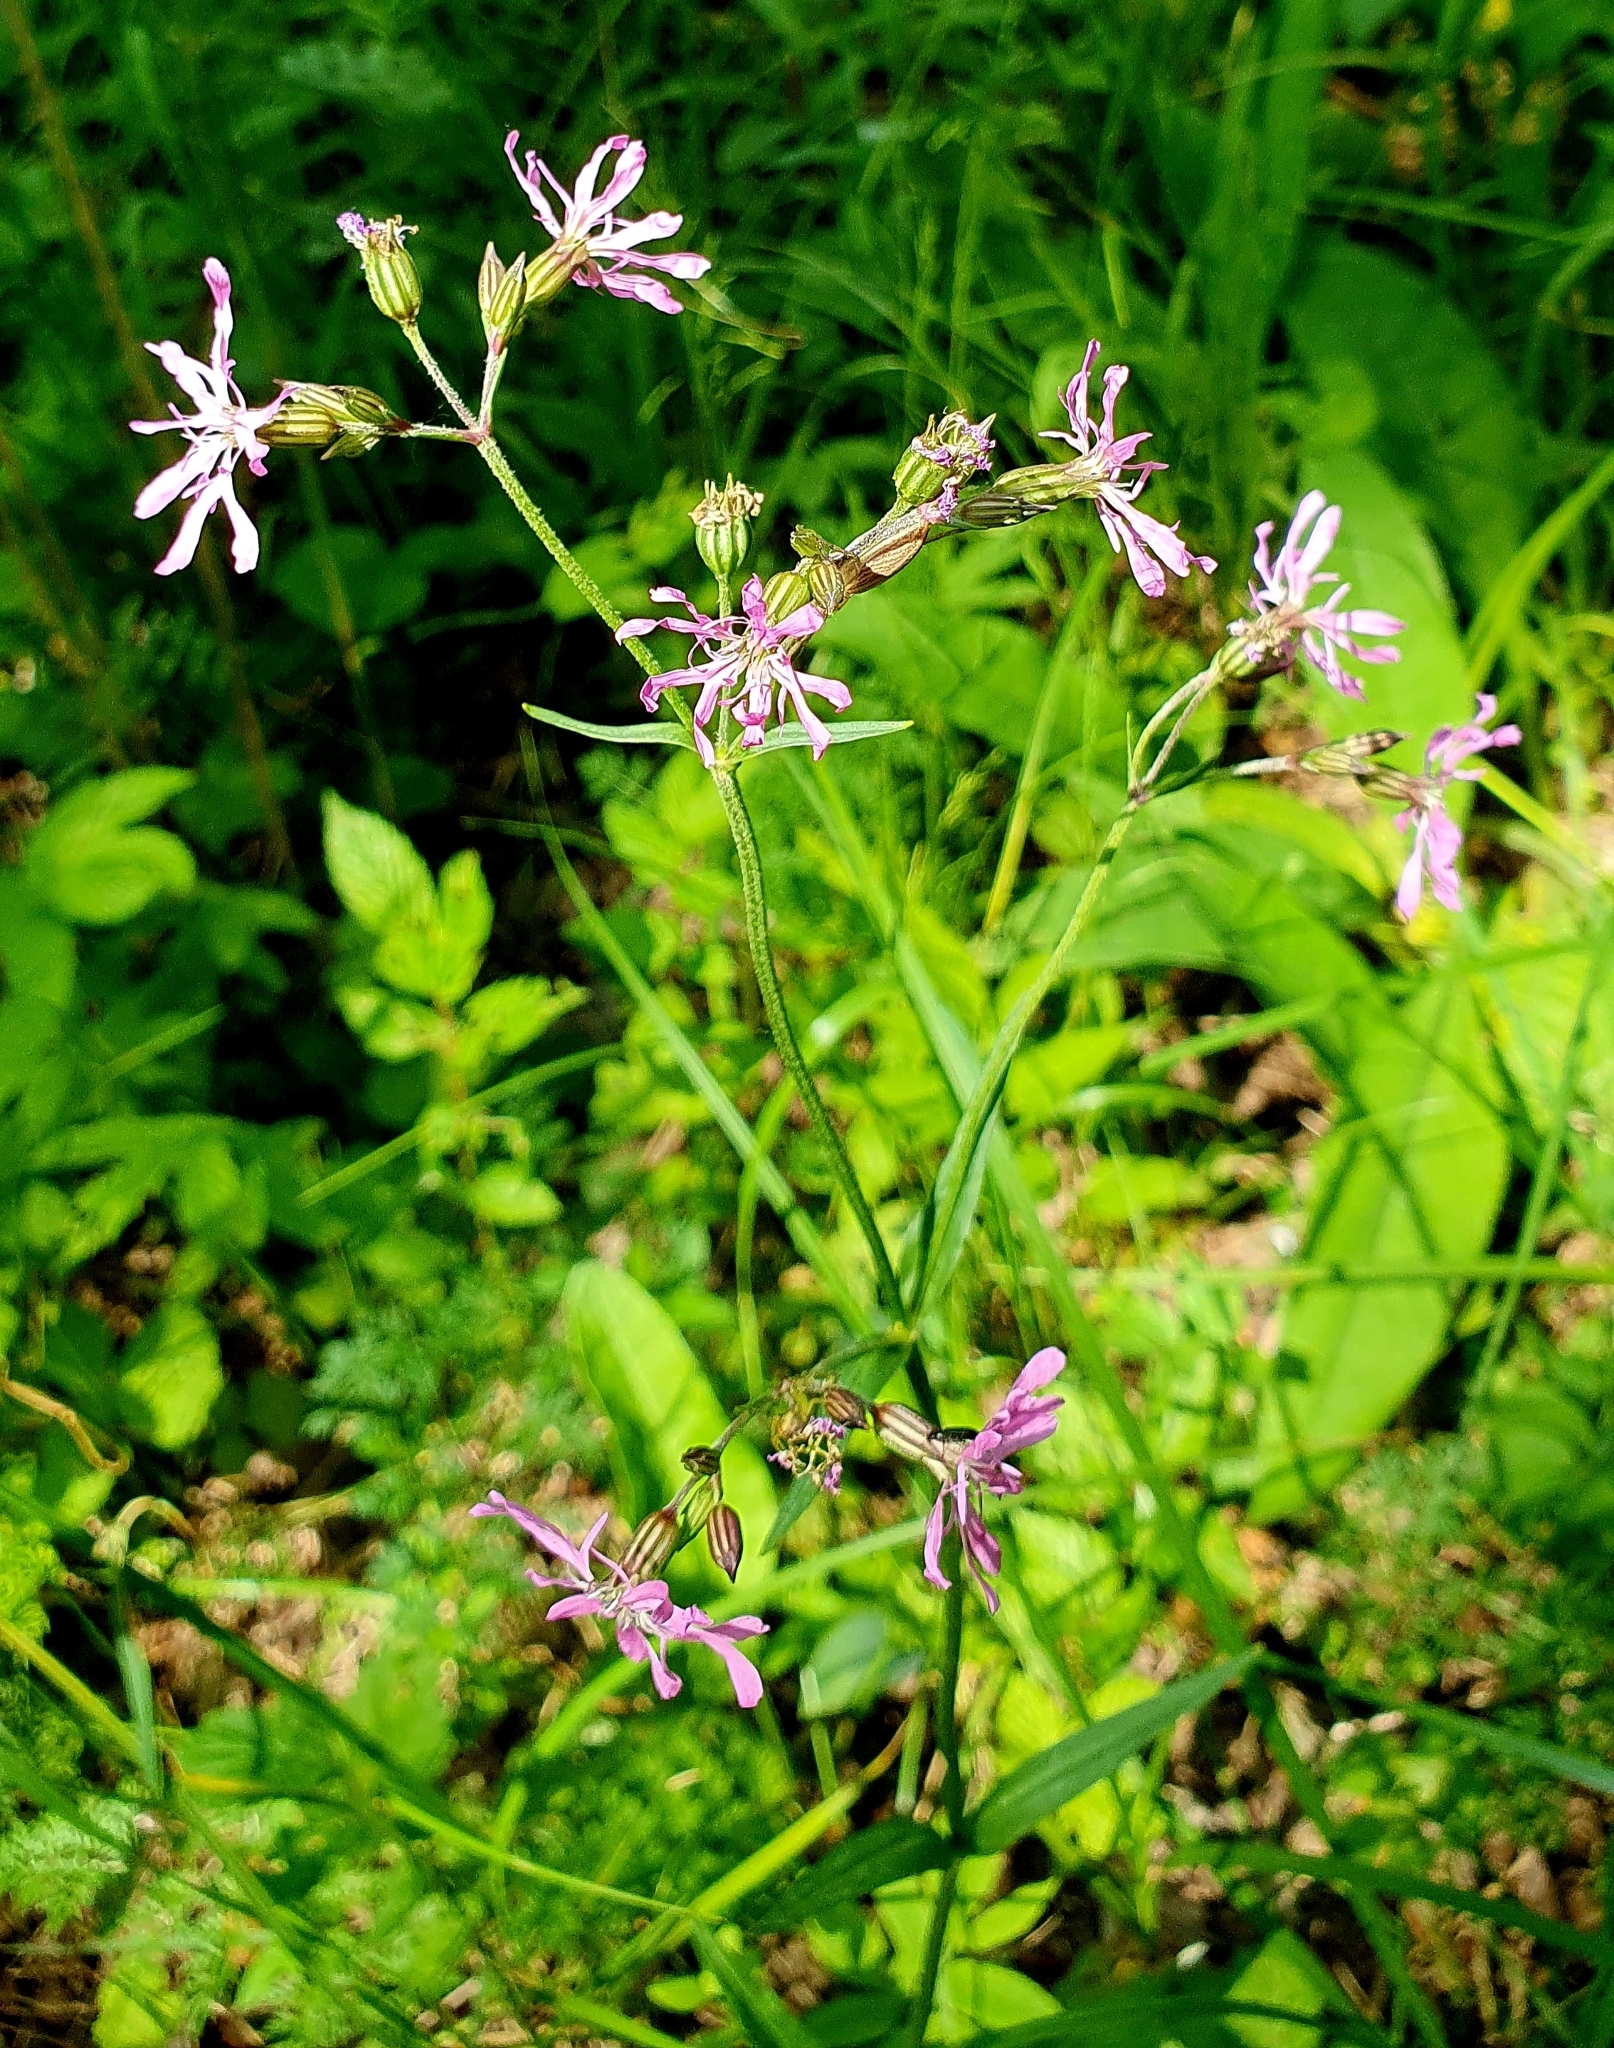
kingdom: Plantae
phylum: Tracheophyta
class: Magnoliopsida
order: Caryophyllales
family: Caryophyllaceae
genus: Silene
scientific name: Silene flos-cuculi
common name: Ragged-robin
